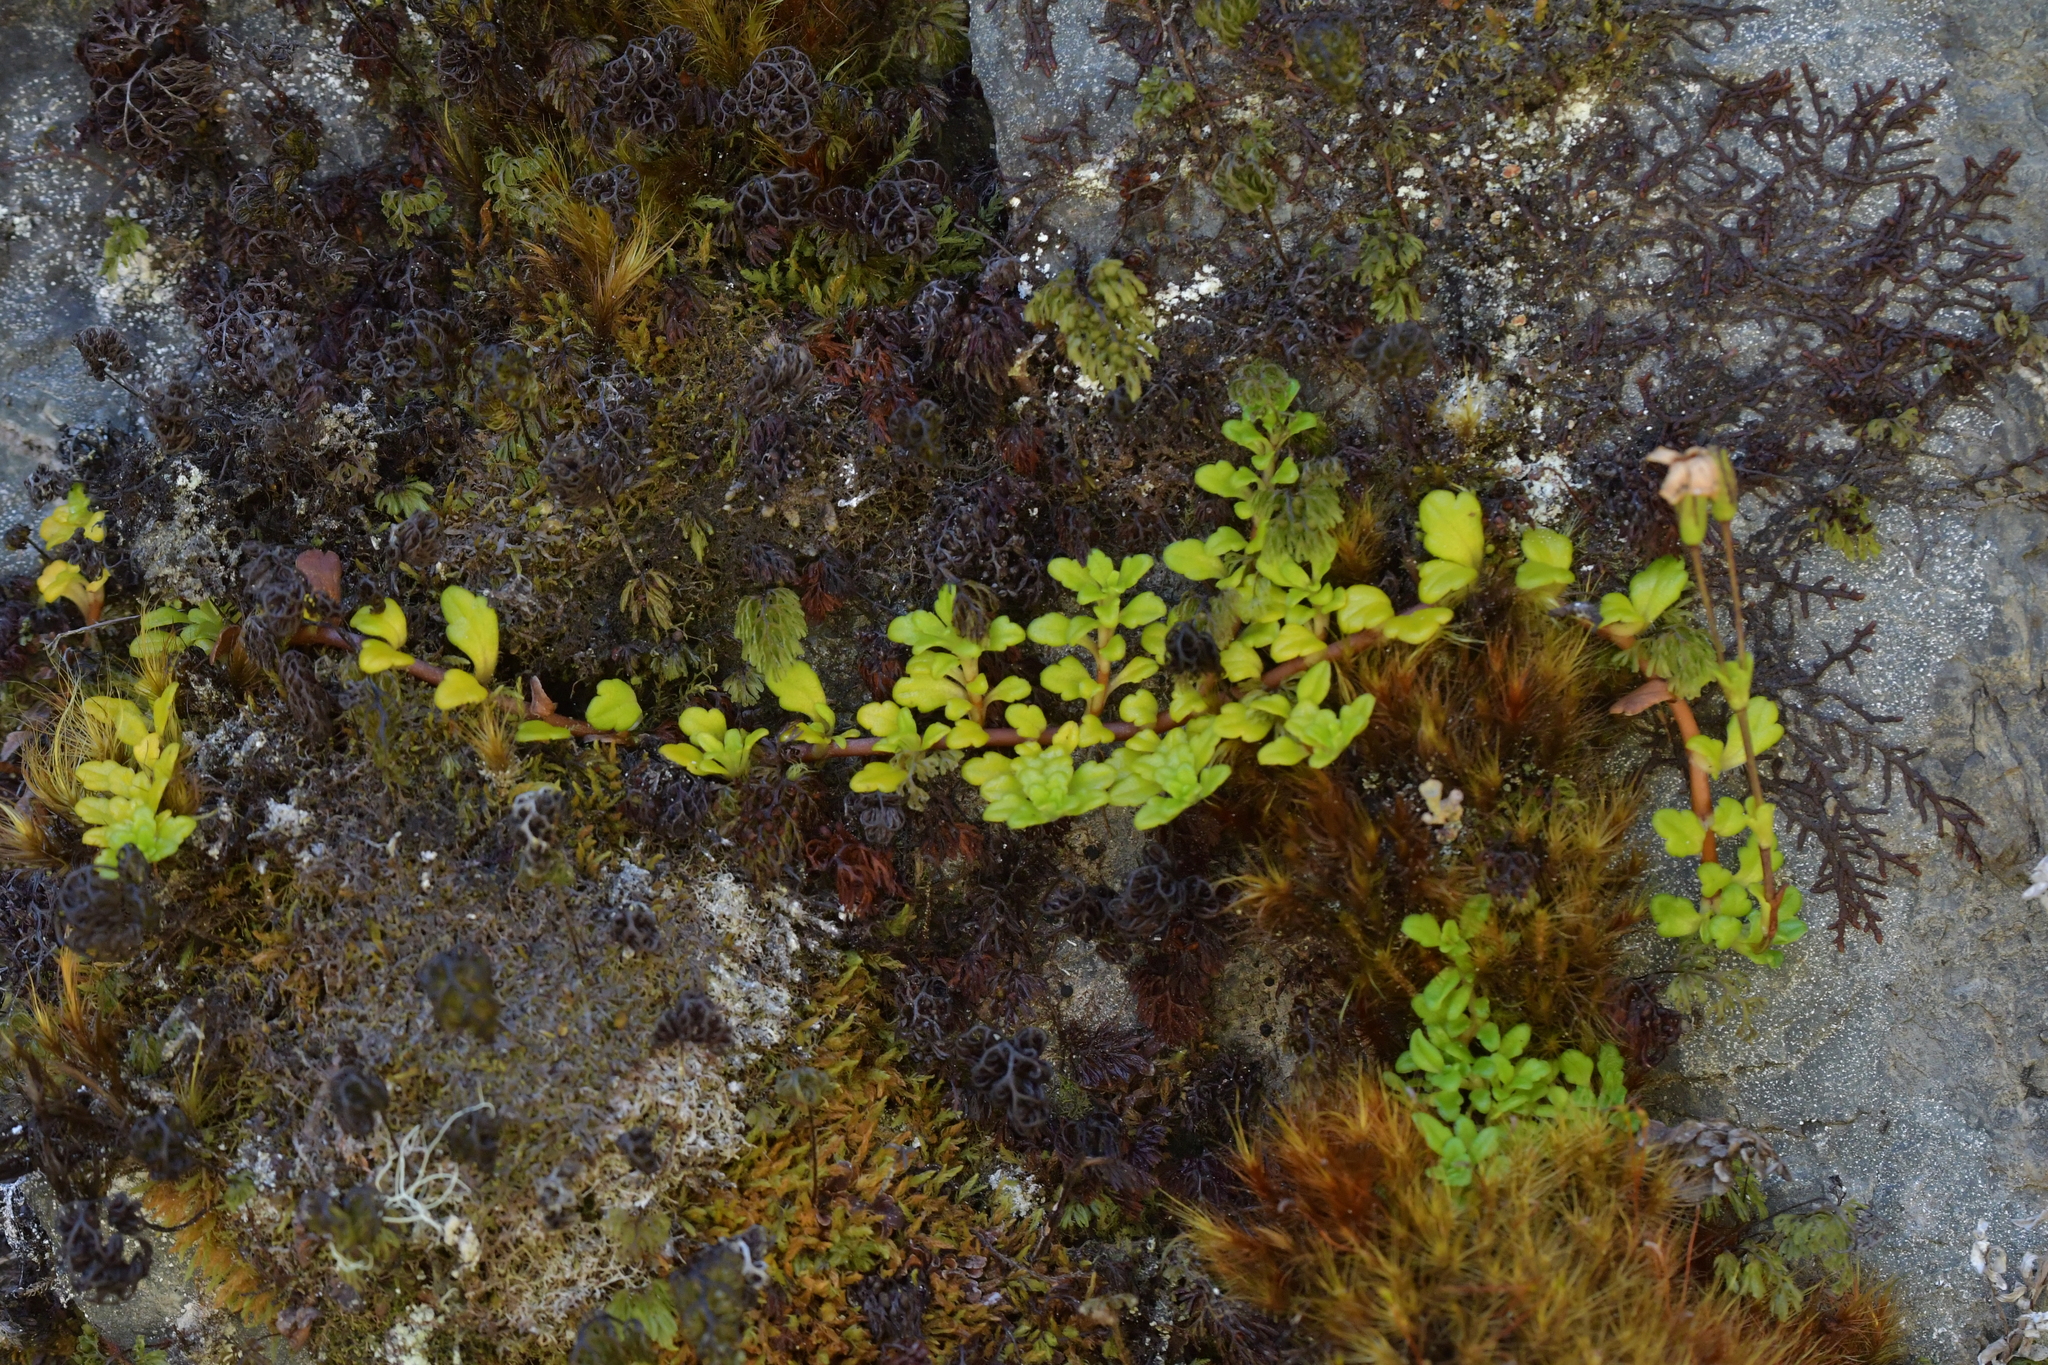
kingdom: Plantae
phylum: Tracheophyta
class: Magnoliopsida
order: Lamiales
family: Plantaginaceae
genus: Ourisia
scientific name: Ourisia caespitosa
